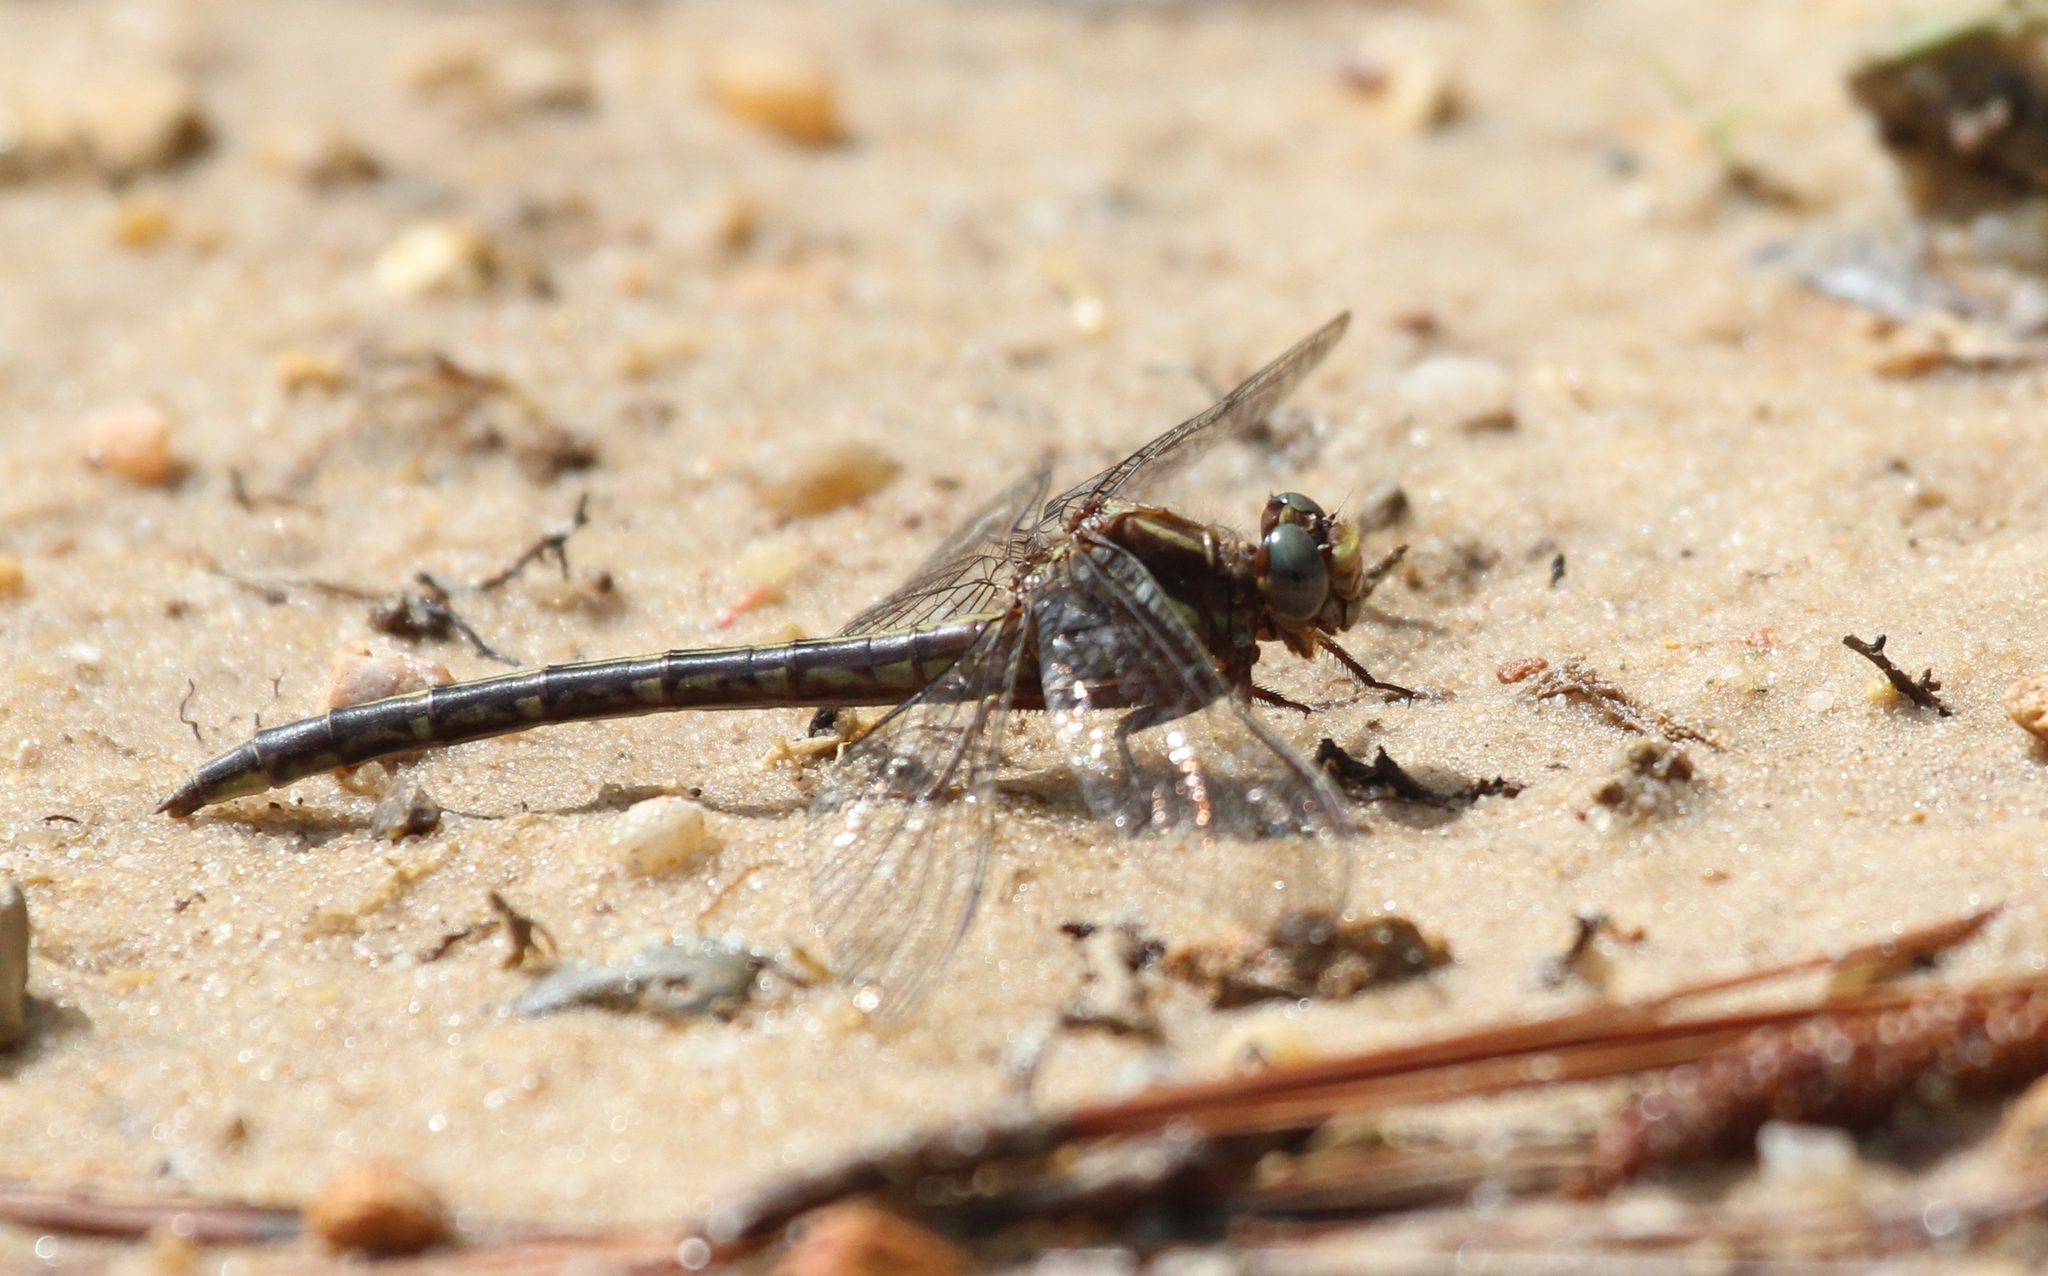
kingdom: Animalia
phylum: Arthropoda
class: Insecta
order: Odonata
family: Gomphidae
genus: Phanogomphus
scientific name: Phanogomphus lividus
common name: Ashy clubtail
